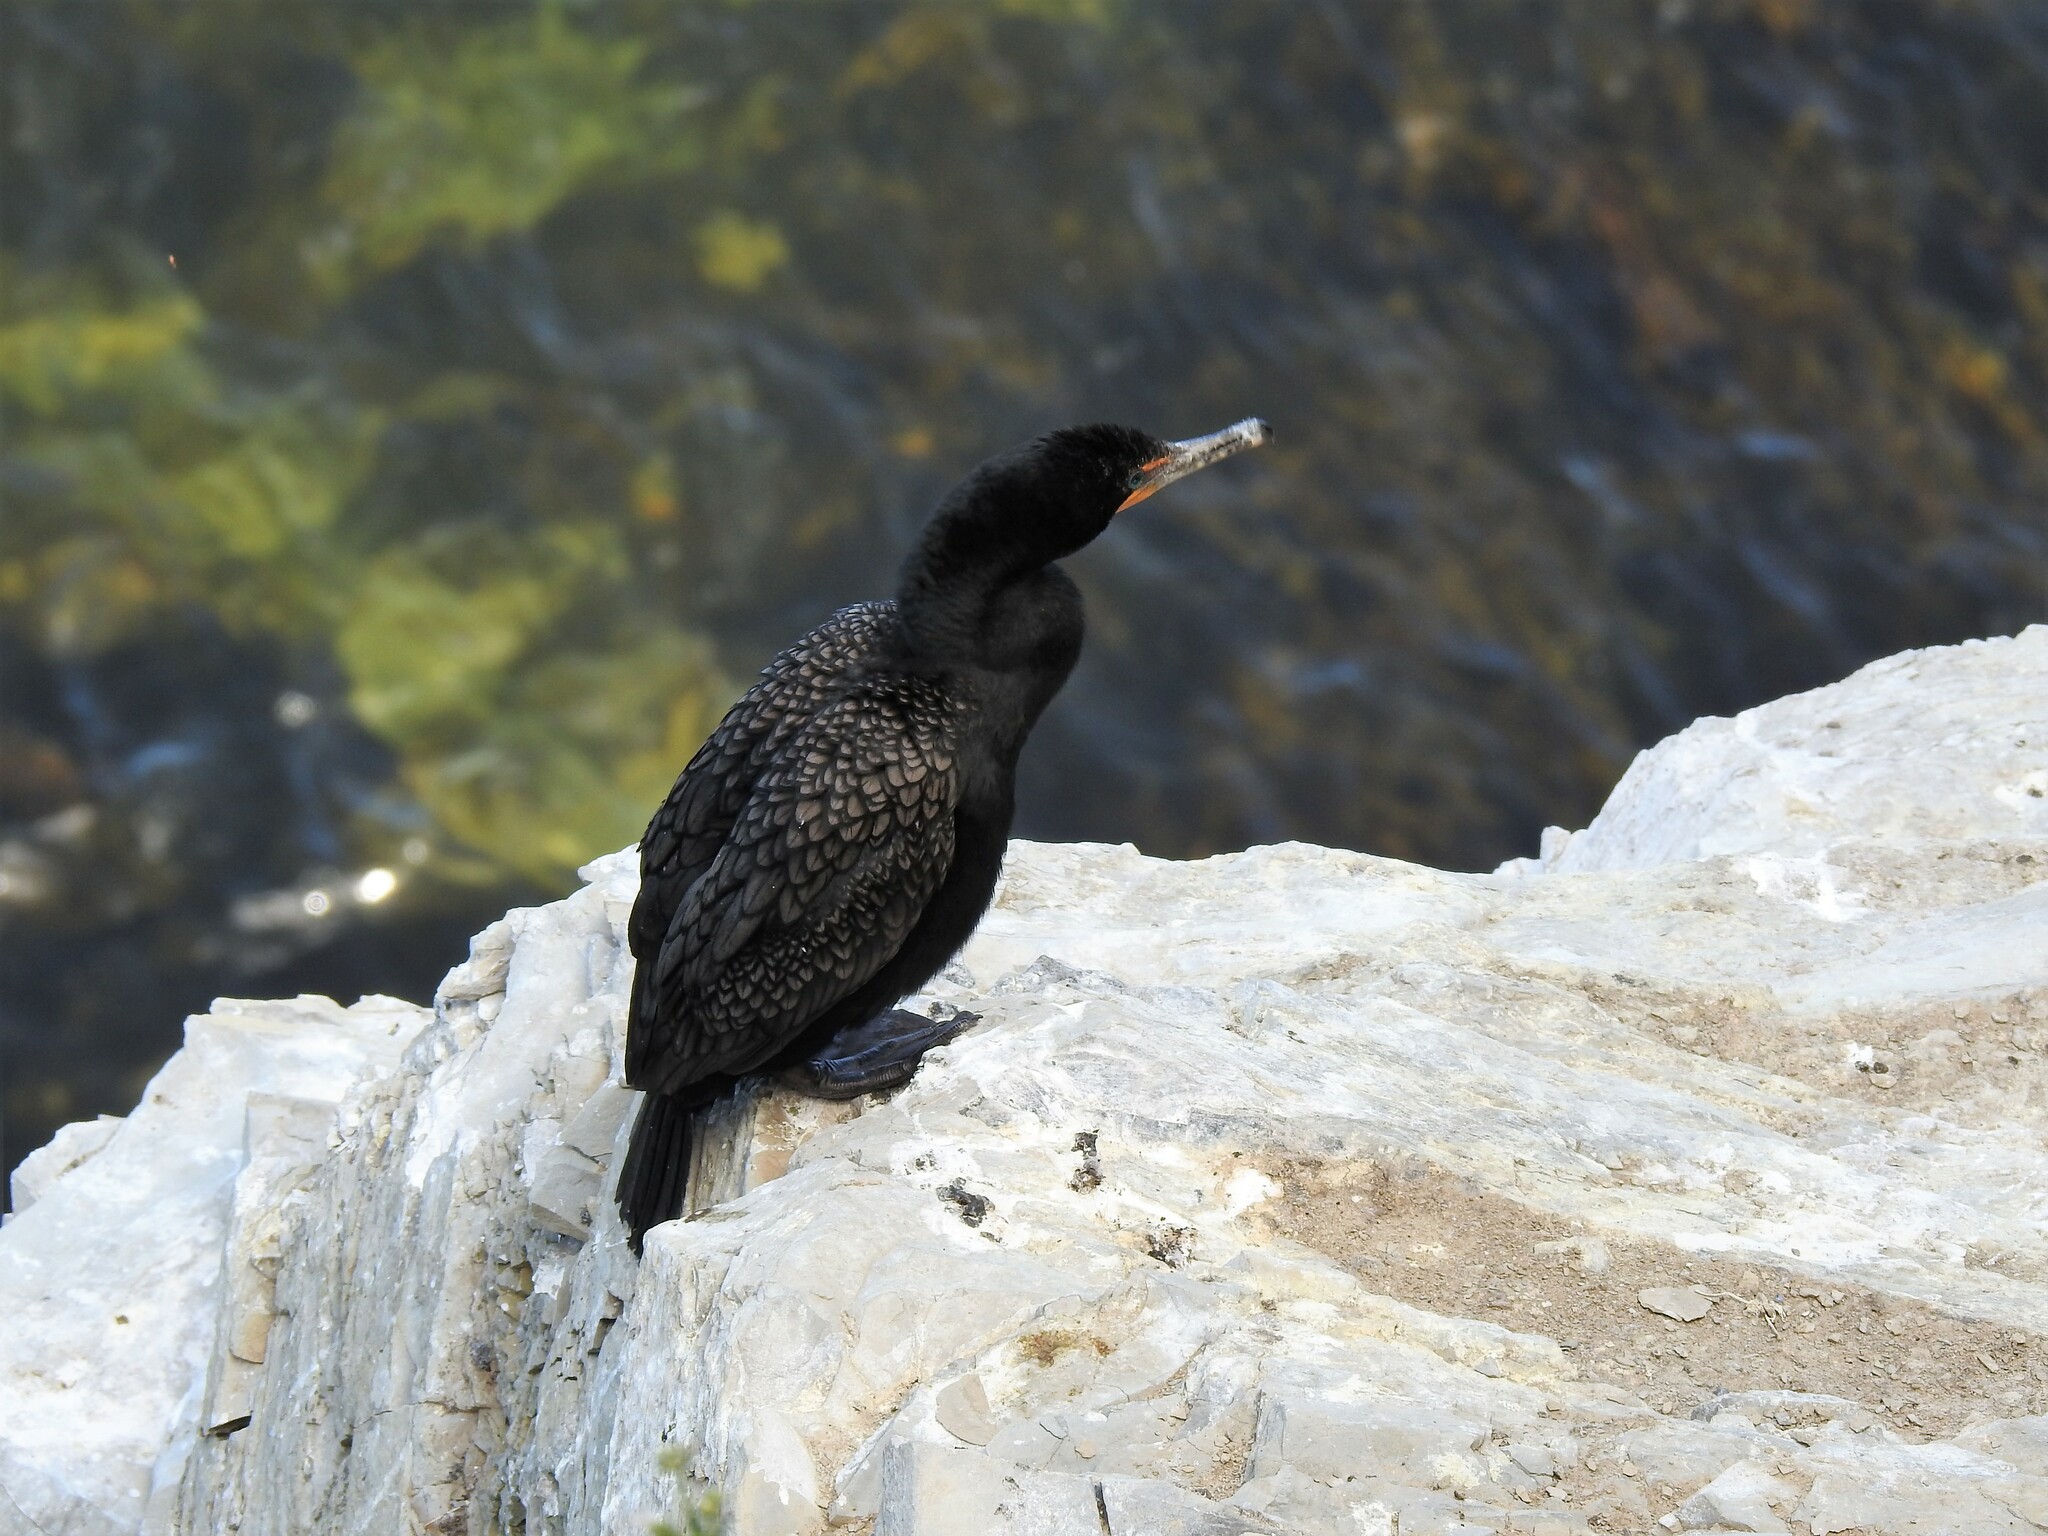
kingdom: Animalia
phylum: Chordata
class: Aves
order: Suliformes
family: Phalacrocoracidae
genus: Phalacrocorax
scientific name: Phalacrocorax auritus
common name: Double-crested cormorant
